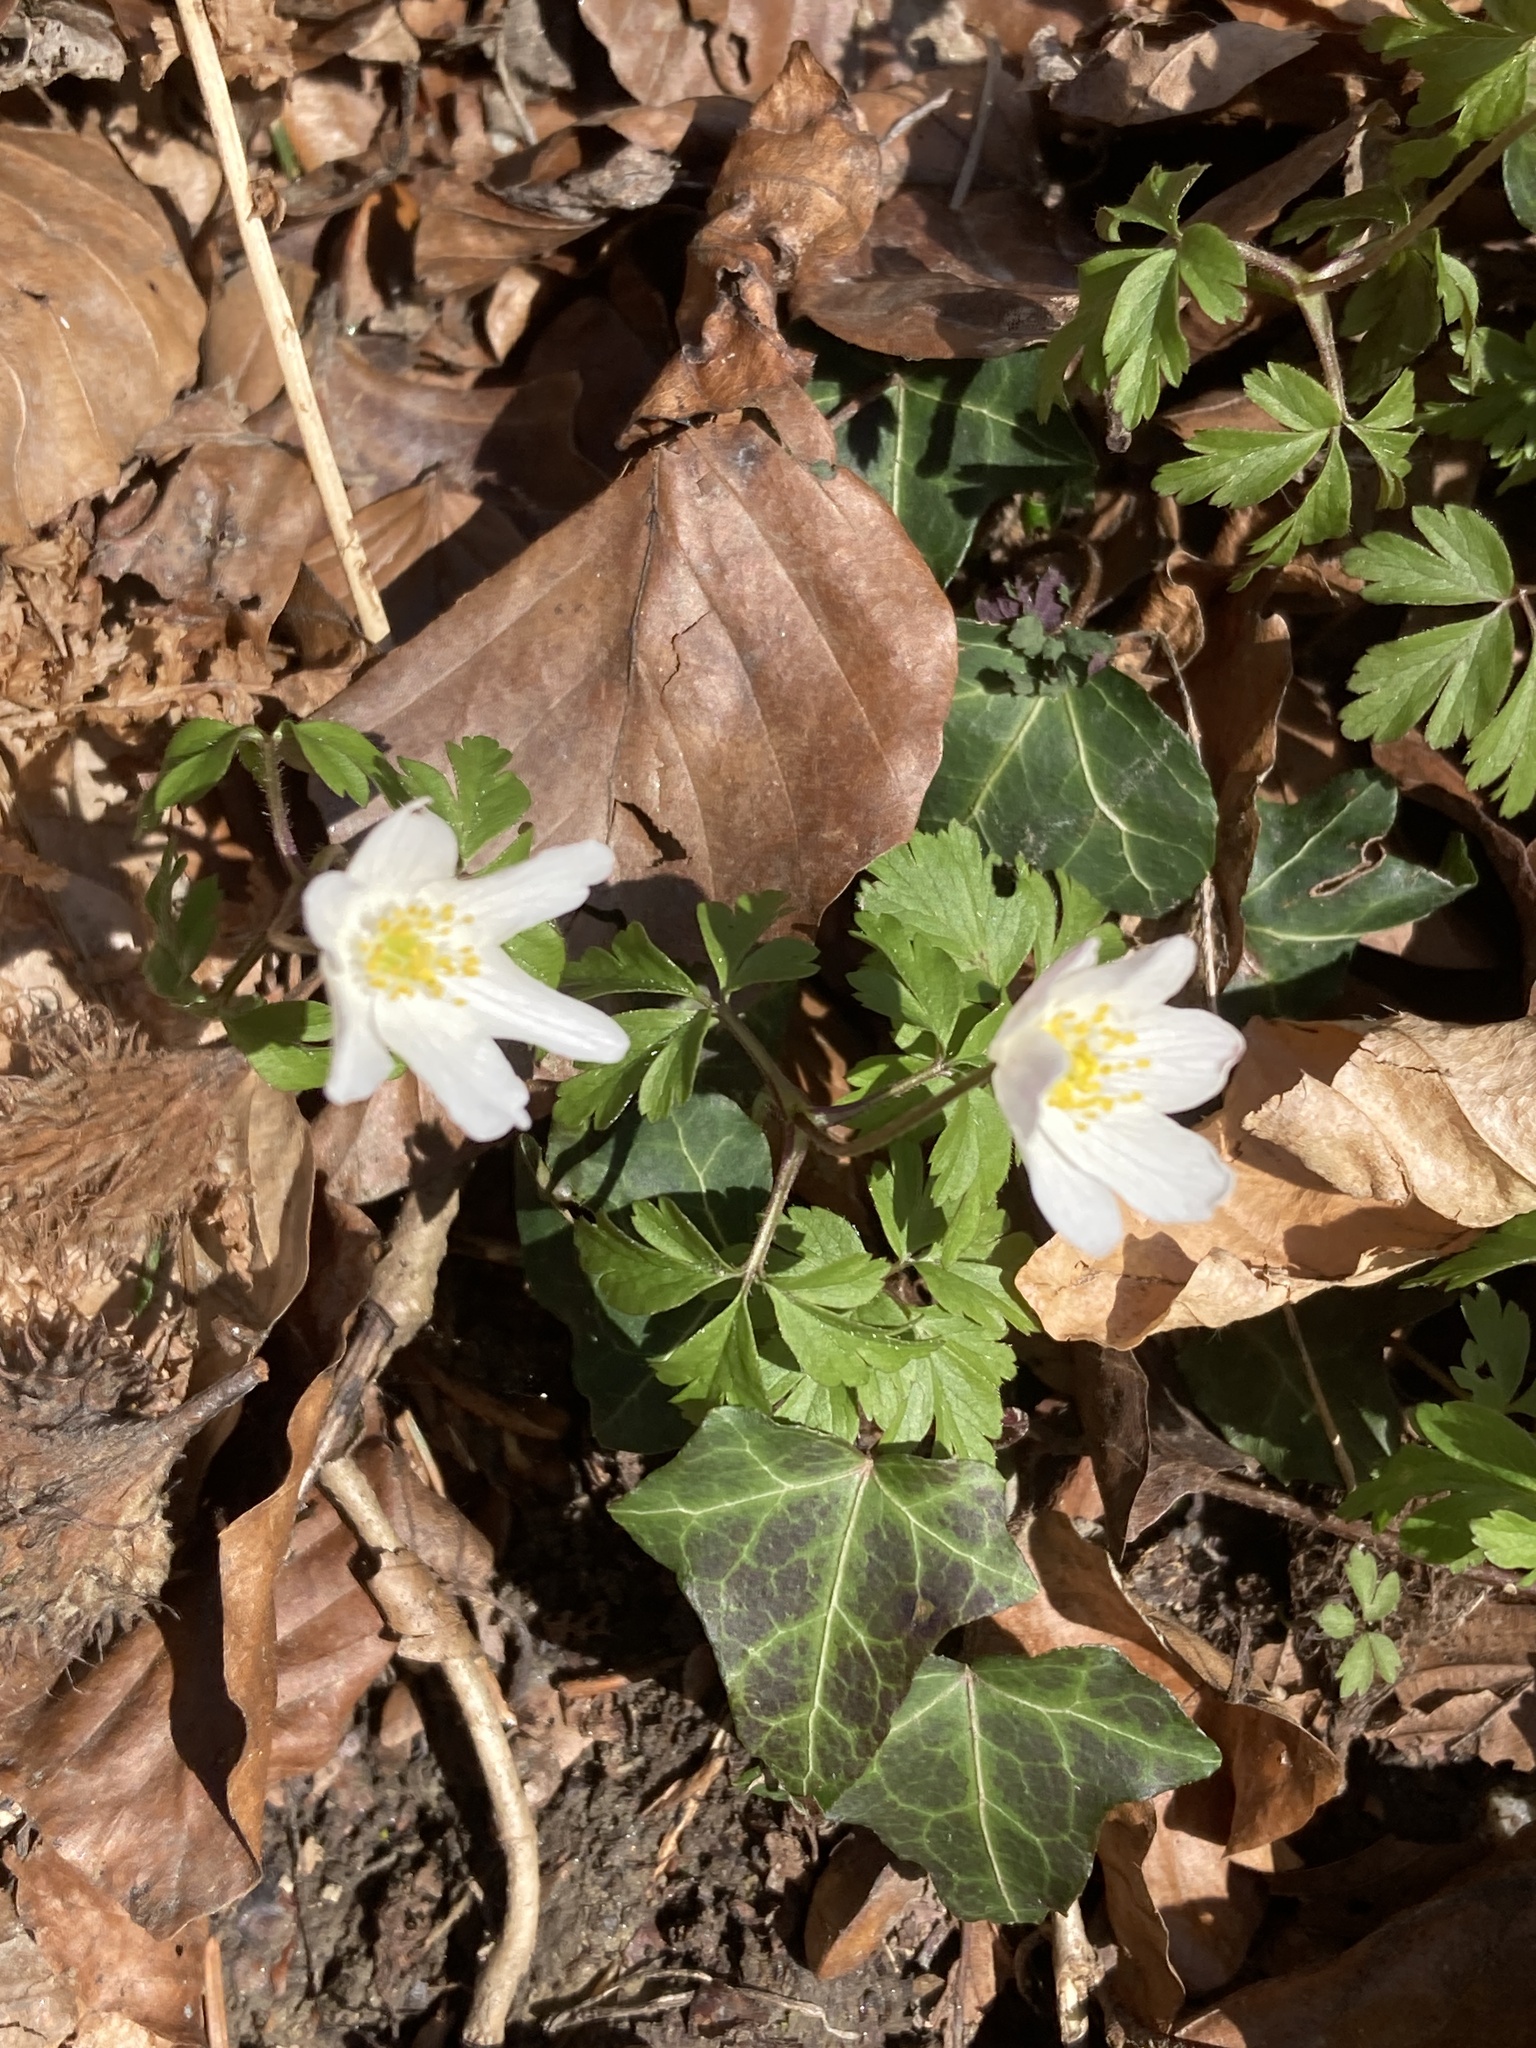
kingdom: Plantae
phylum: Tracheophyta
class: Magnoliopsida
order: Ranunculales
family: Ranunculaceae
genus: Anemone
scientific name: Anemone nemorosa
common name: Wood anemone
